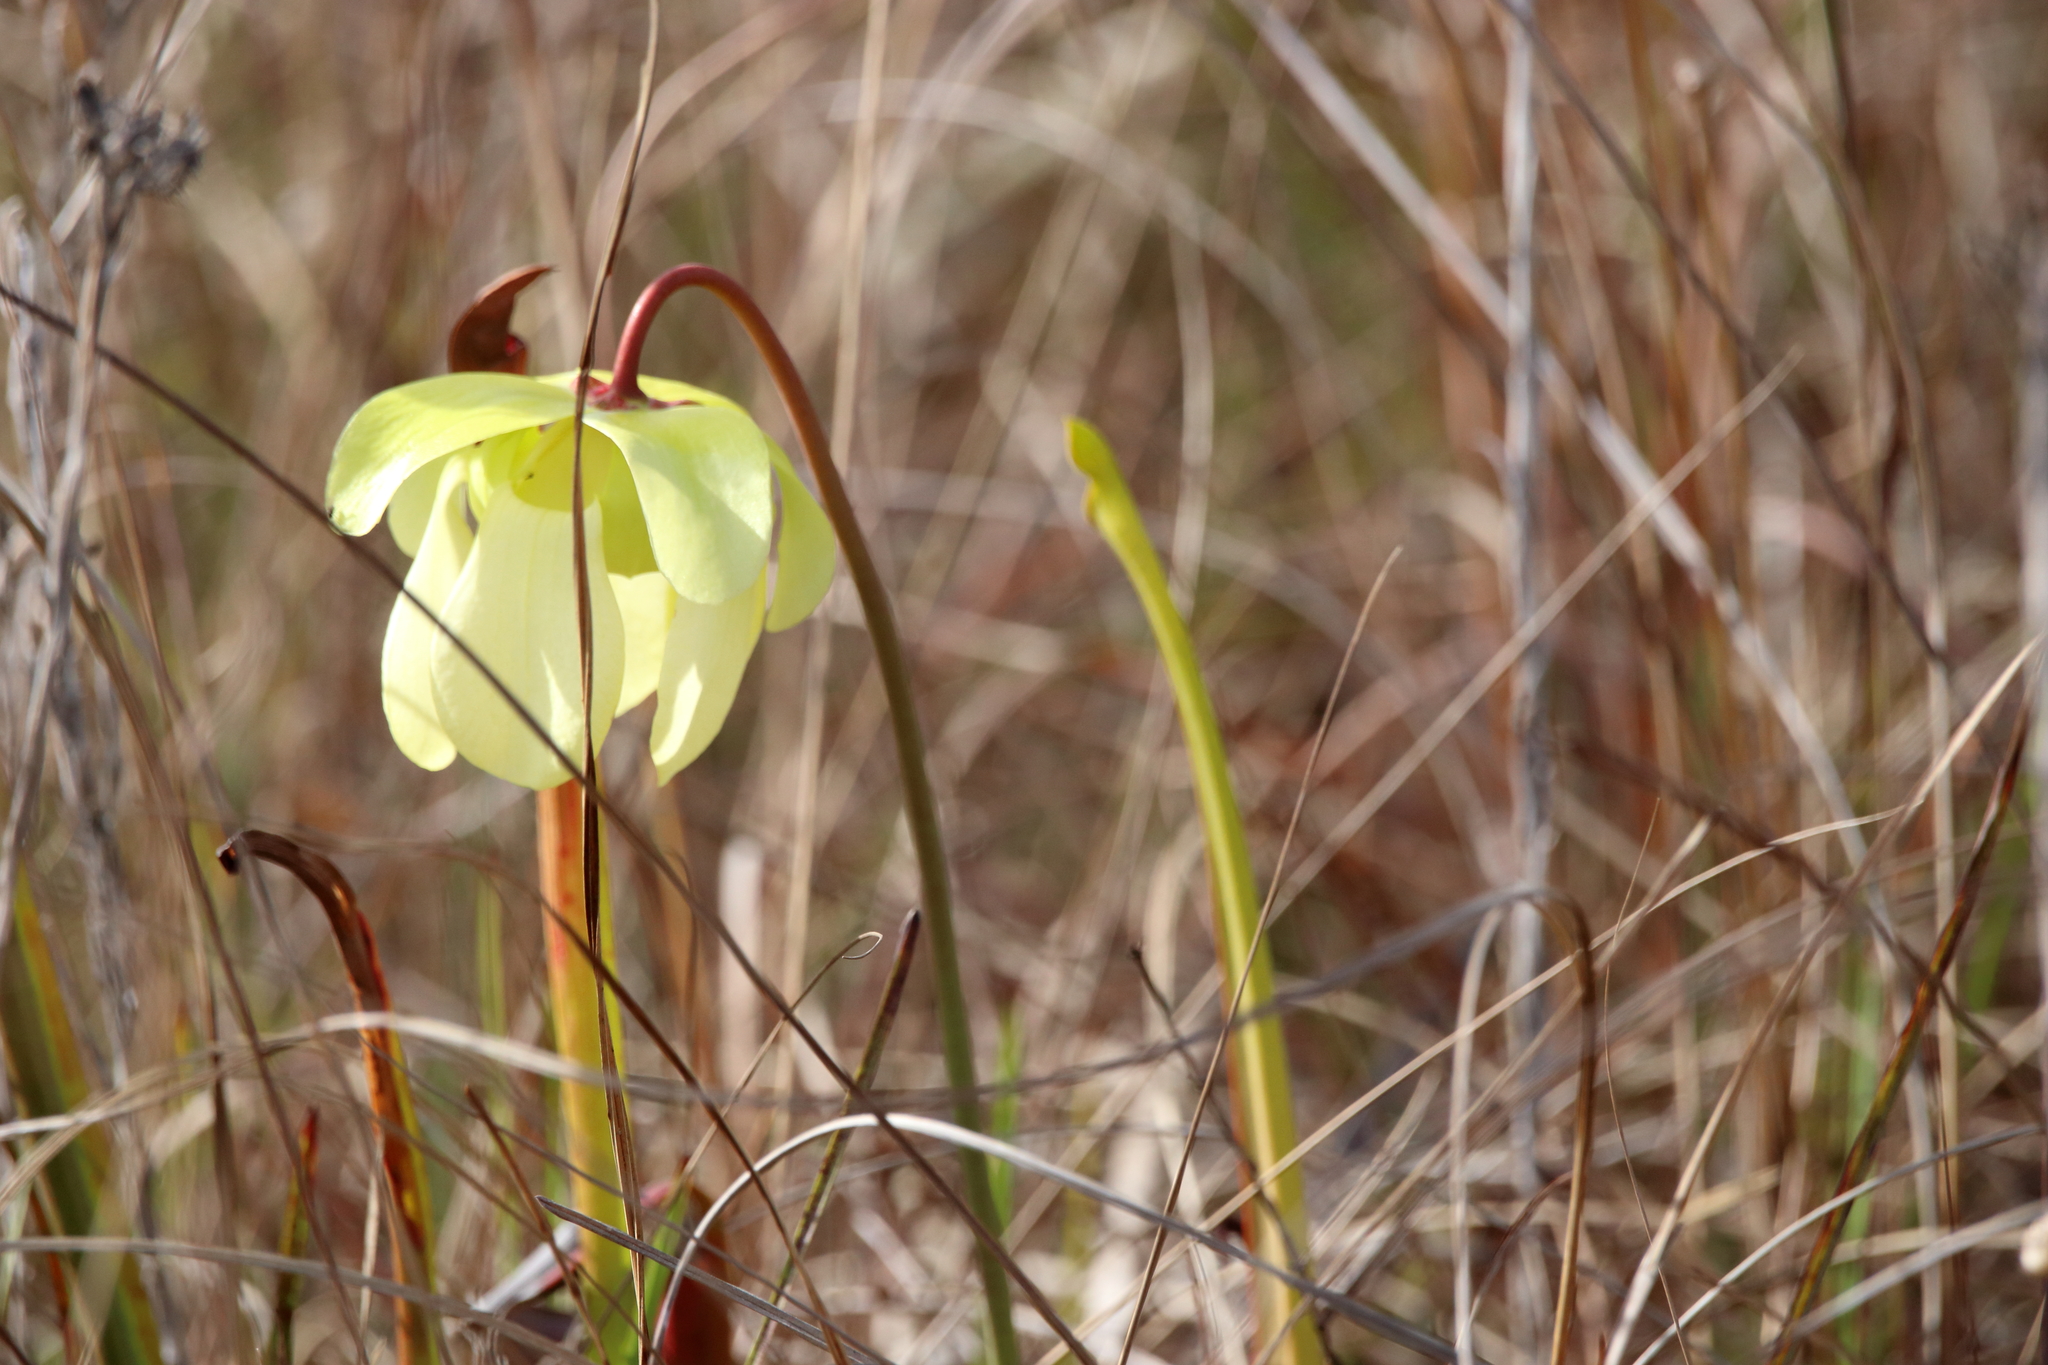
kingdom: Plantae
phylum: Tracheophyta
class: Magnoliopsida
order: Ericales
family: Sarraceniaceae
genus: Sarracenia
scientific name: Sarracenia alata
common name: Yellow trumpets
